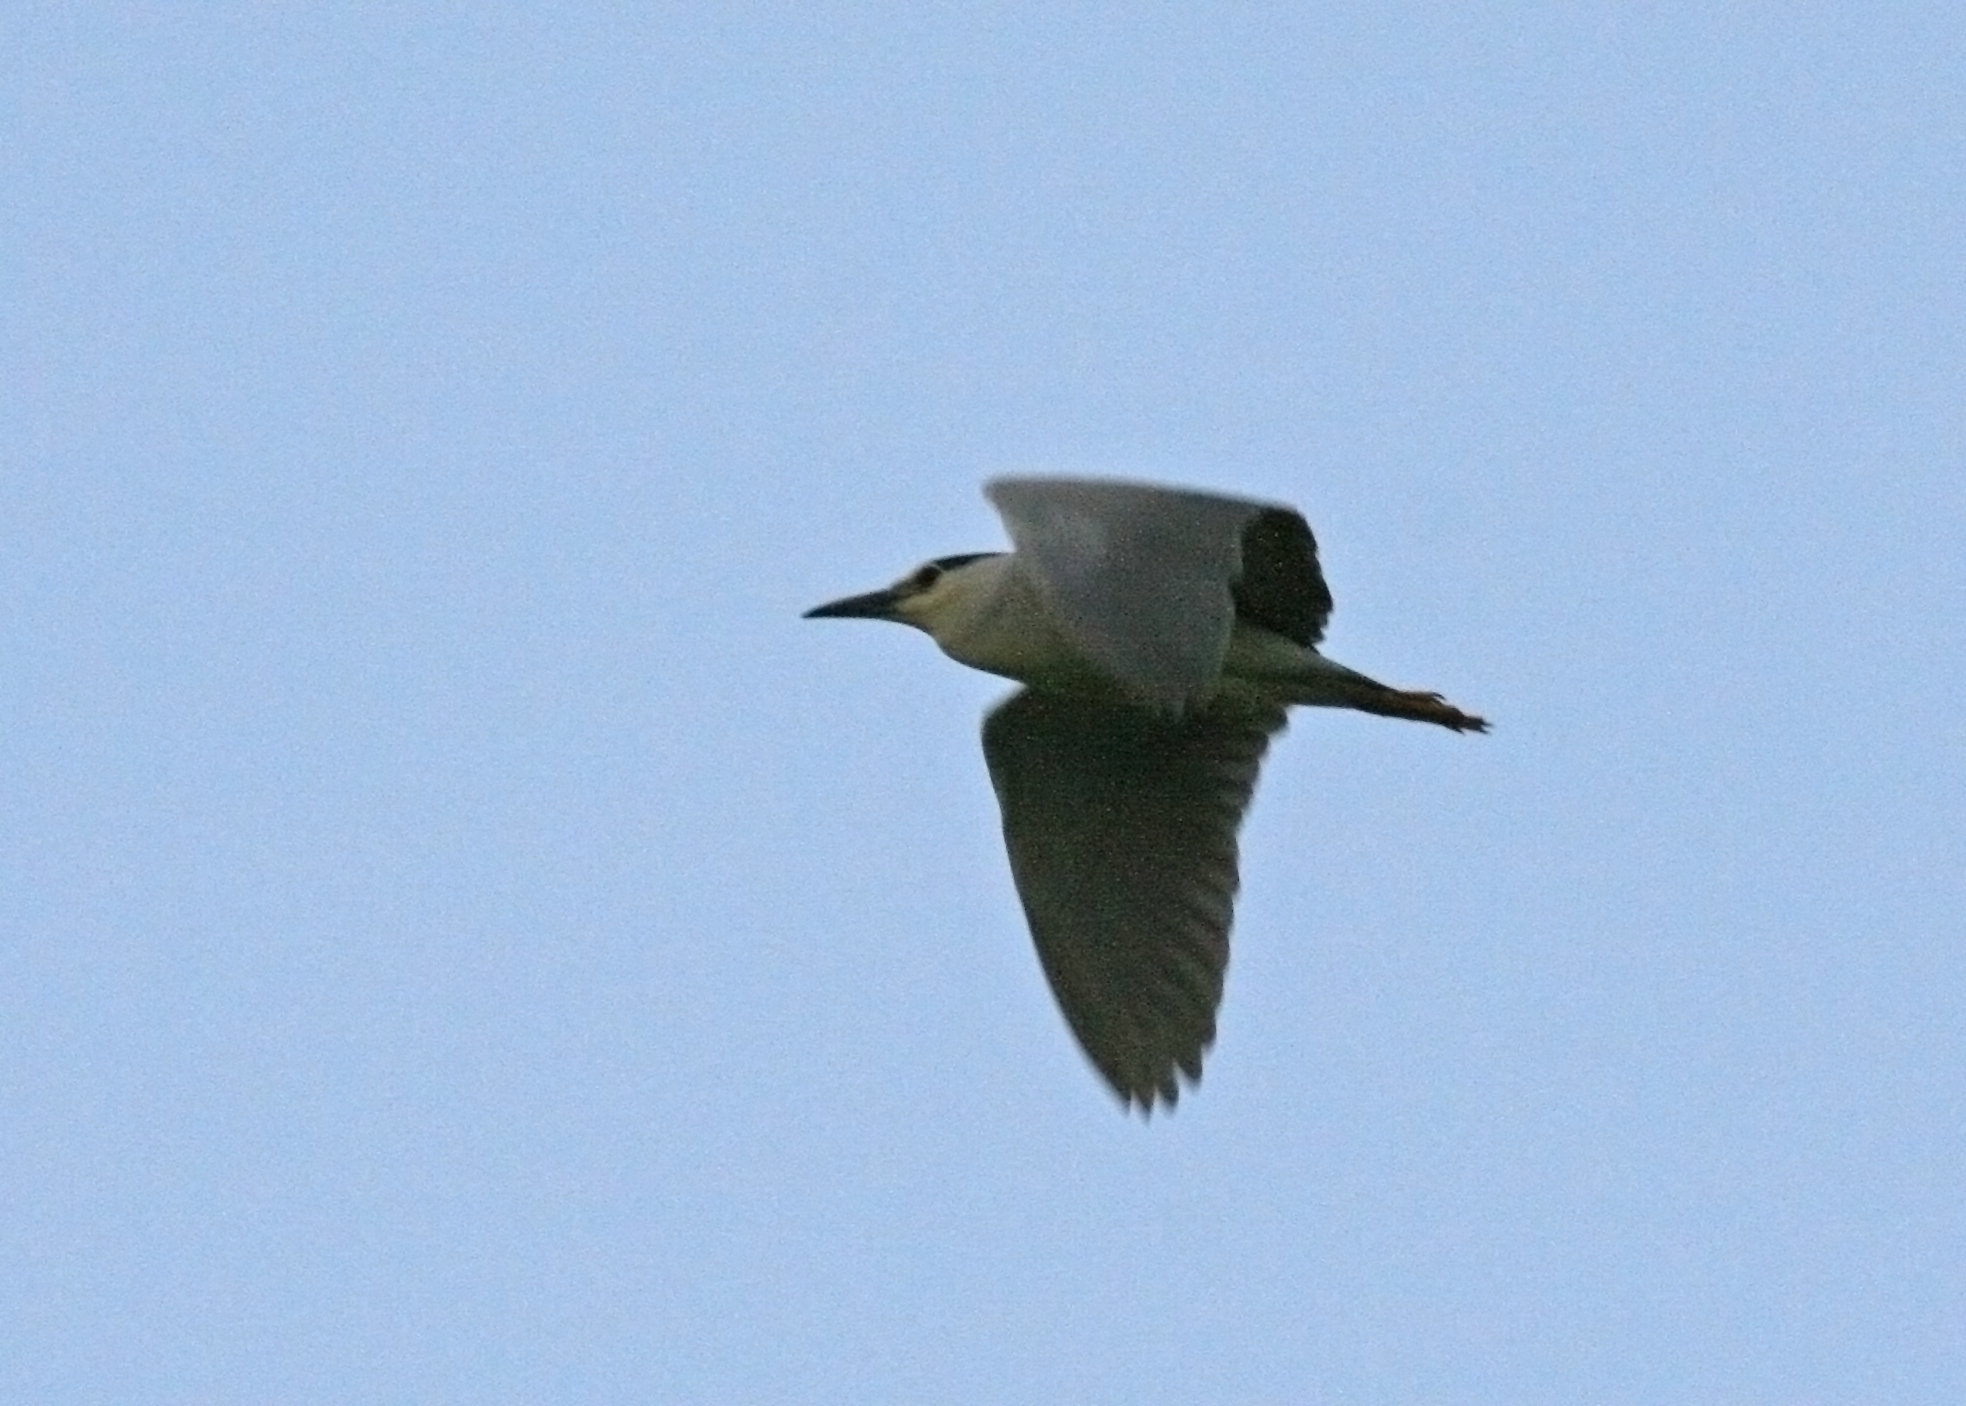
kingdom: Animalia
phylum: Chordata
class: Aves
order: Pelecaniformes
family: Ardeidae
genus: Nycticorax
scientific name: Nycticorax nycticorax
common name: Black-crowned night heron
